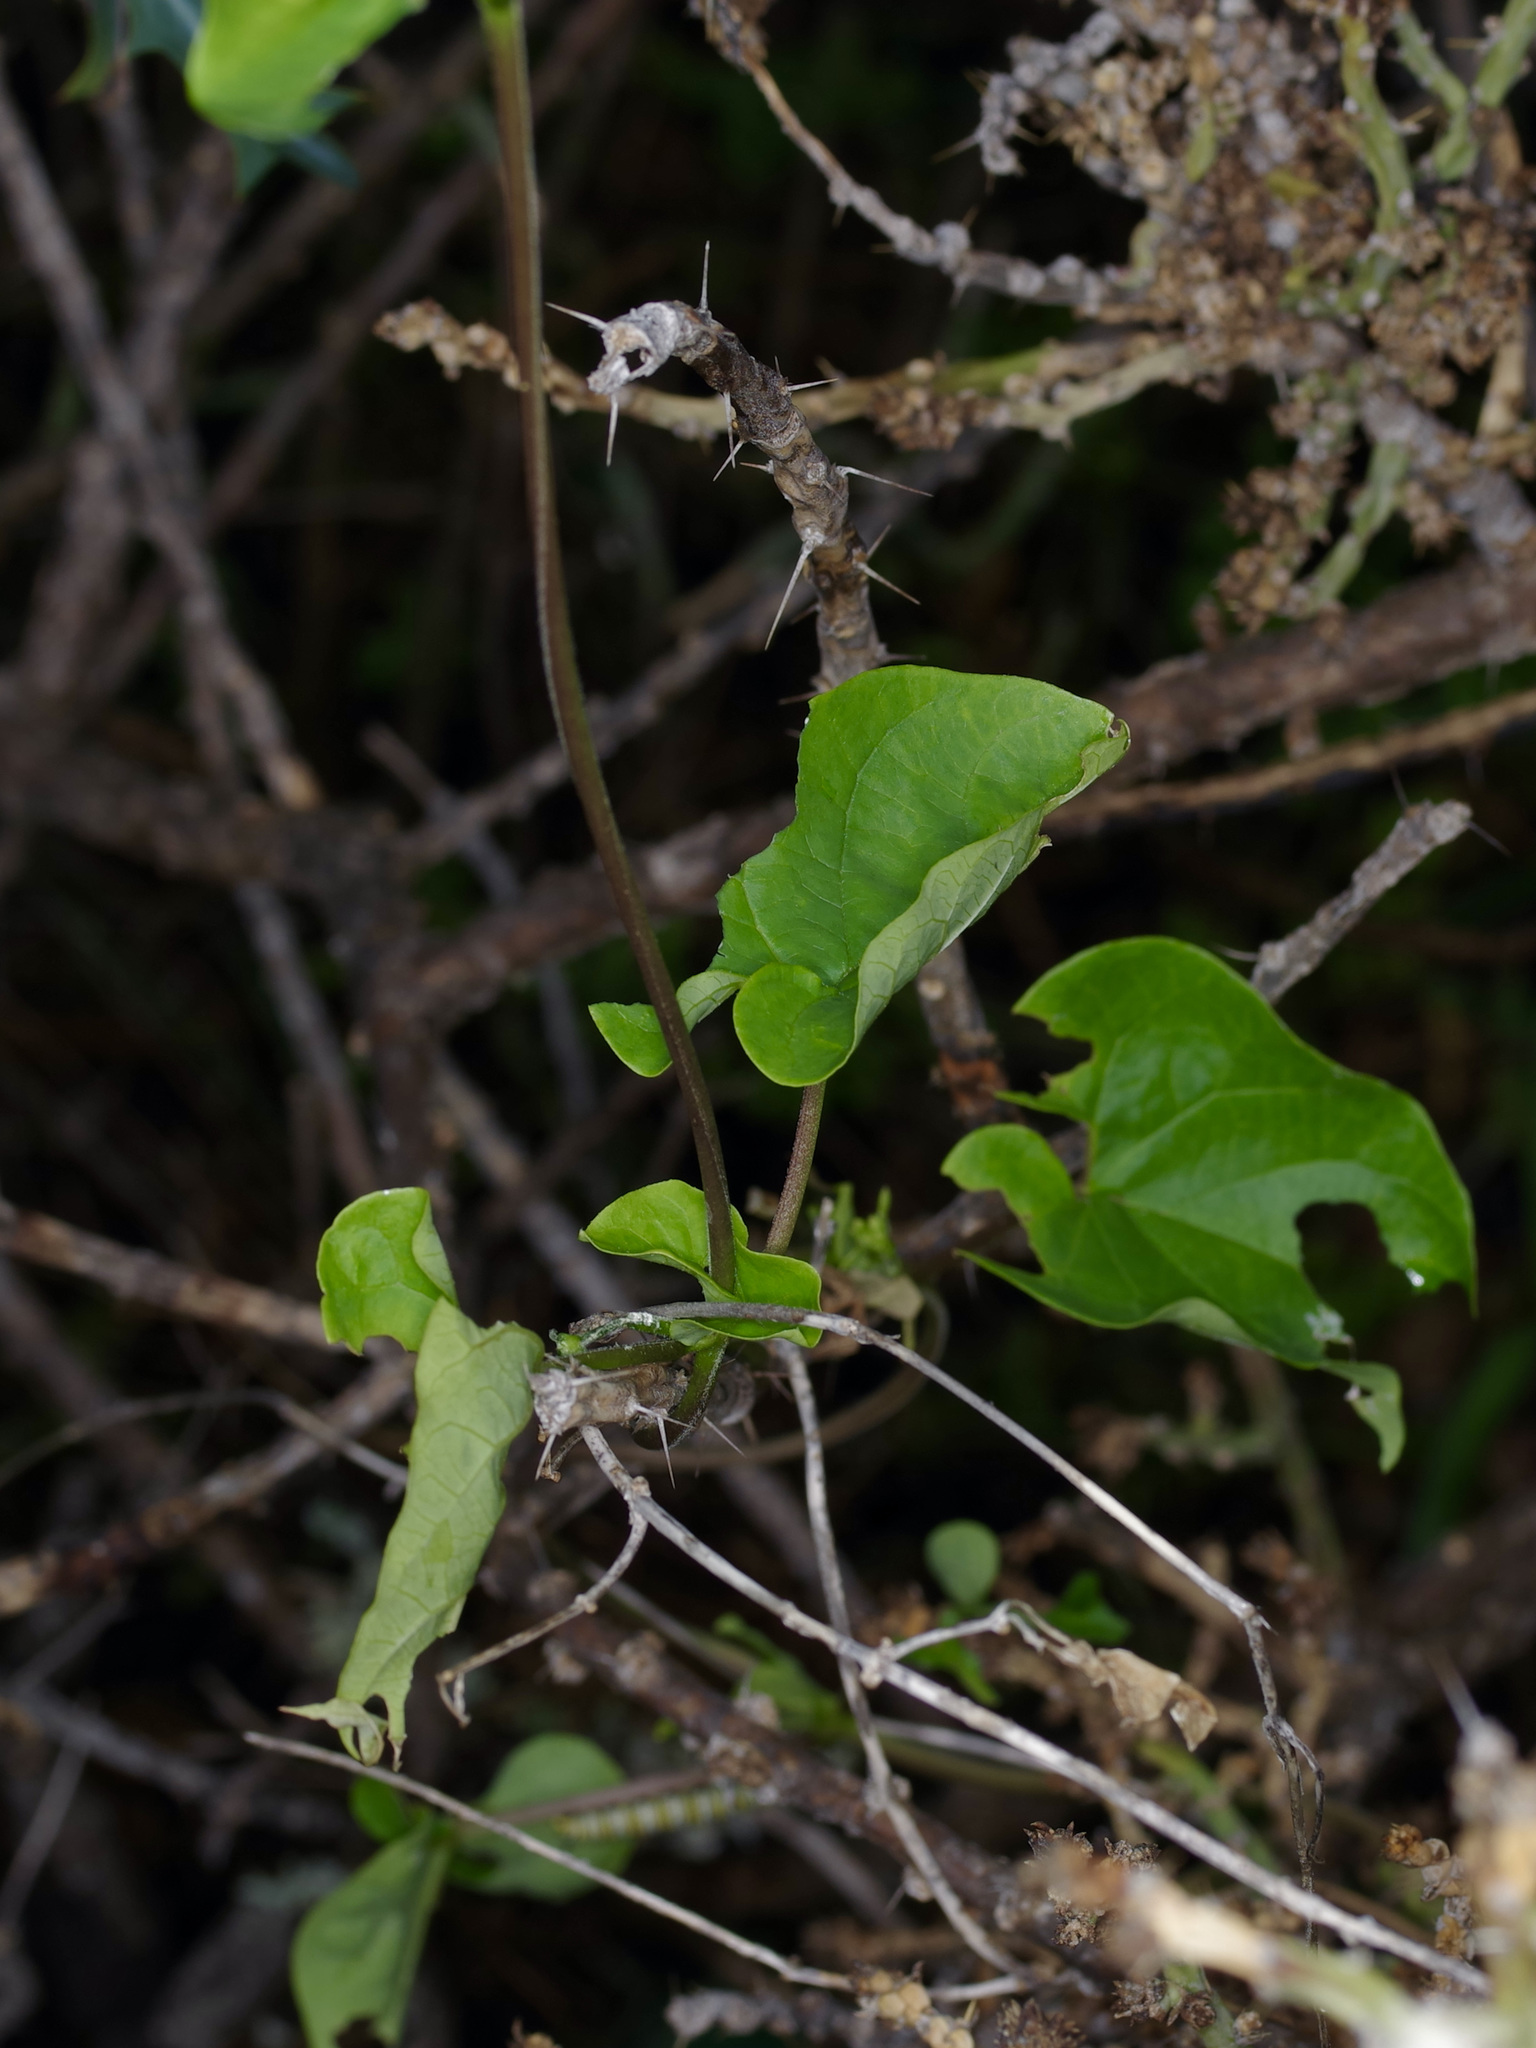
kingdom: Plantae
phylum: Tracheophyta
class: Magnoliopsida
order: Gentianales
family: Apocynaceae
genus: Cynanchum
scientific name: Cynanchum racemosum
